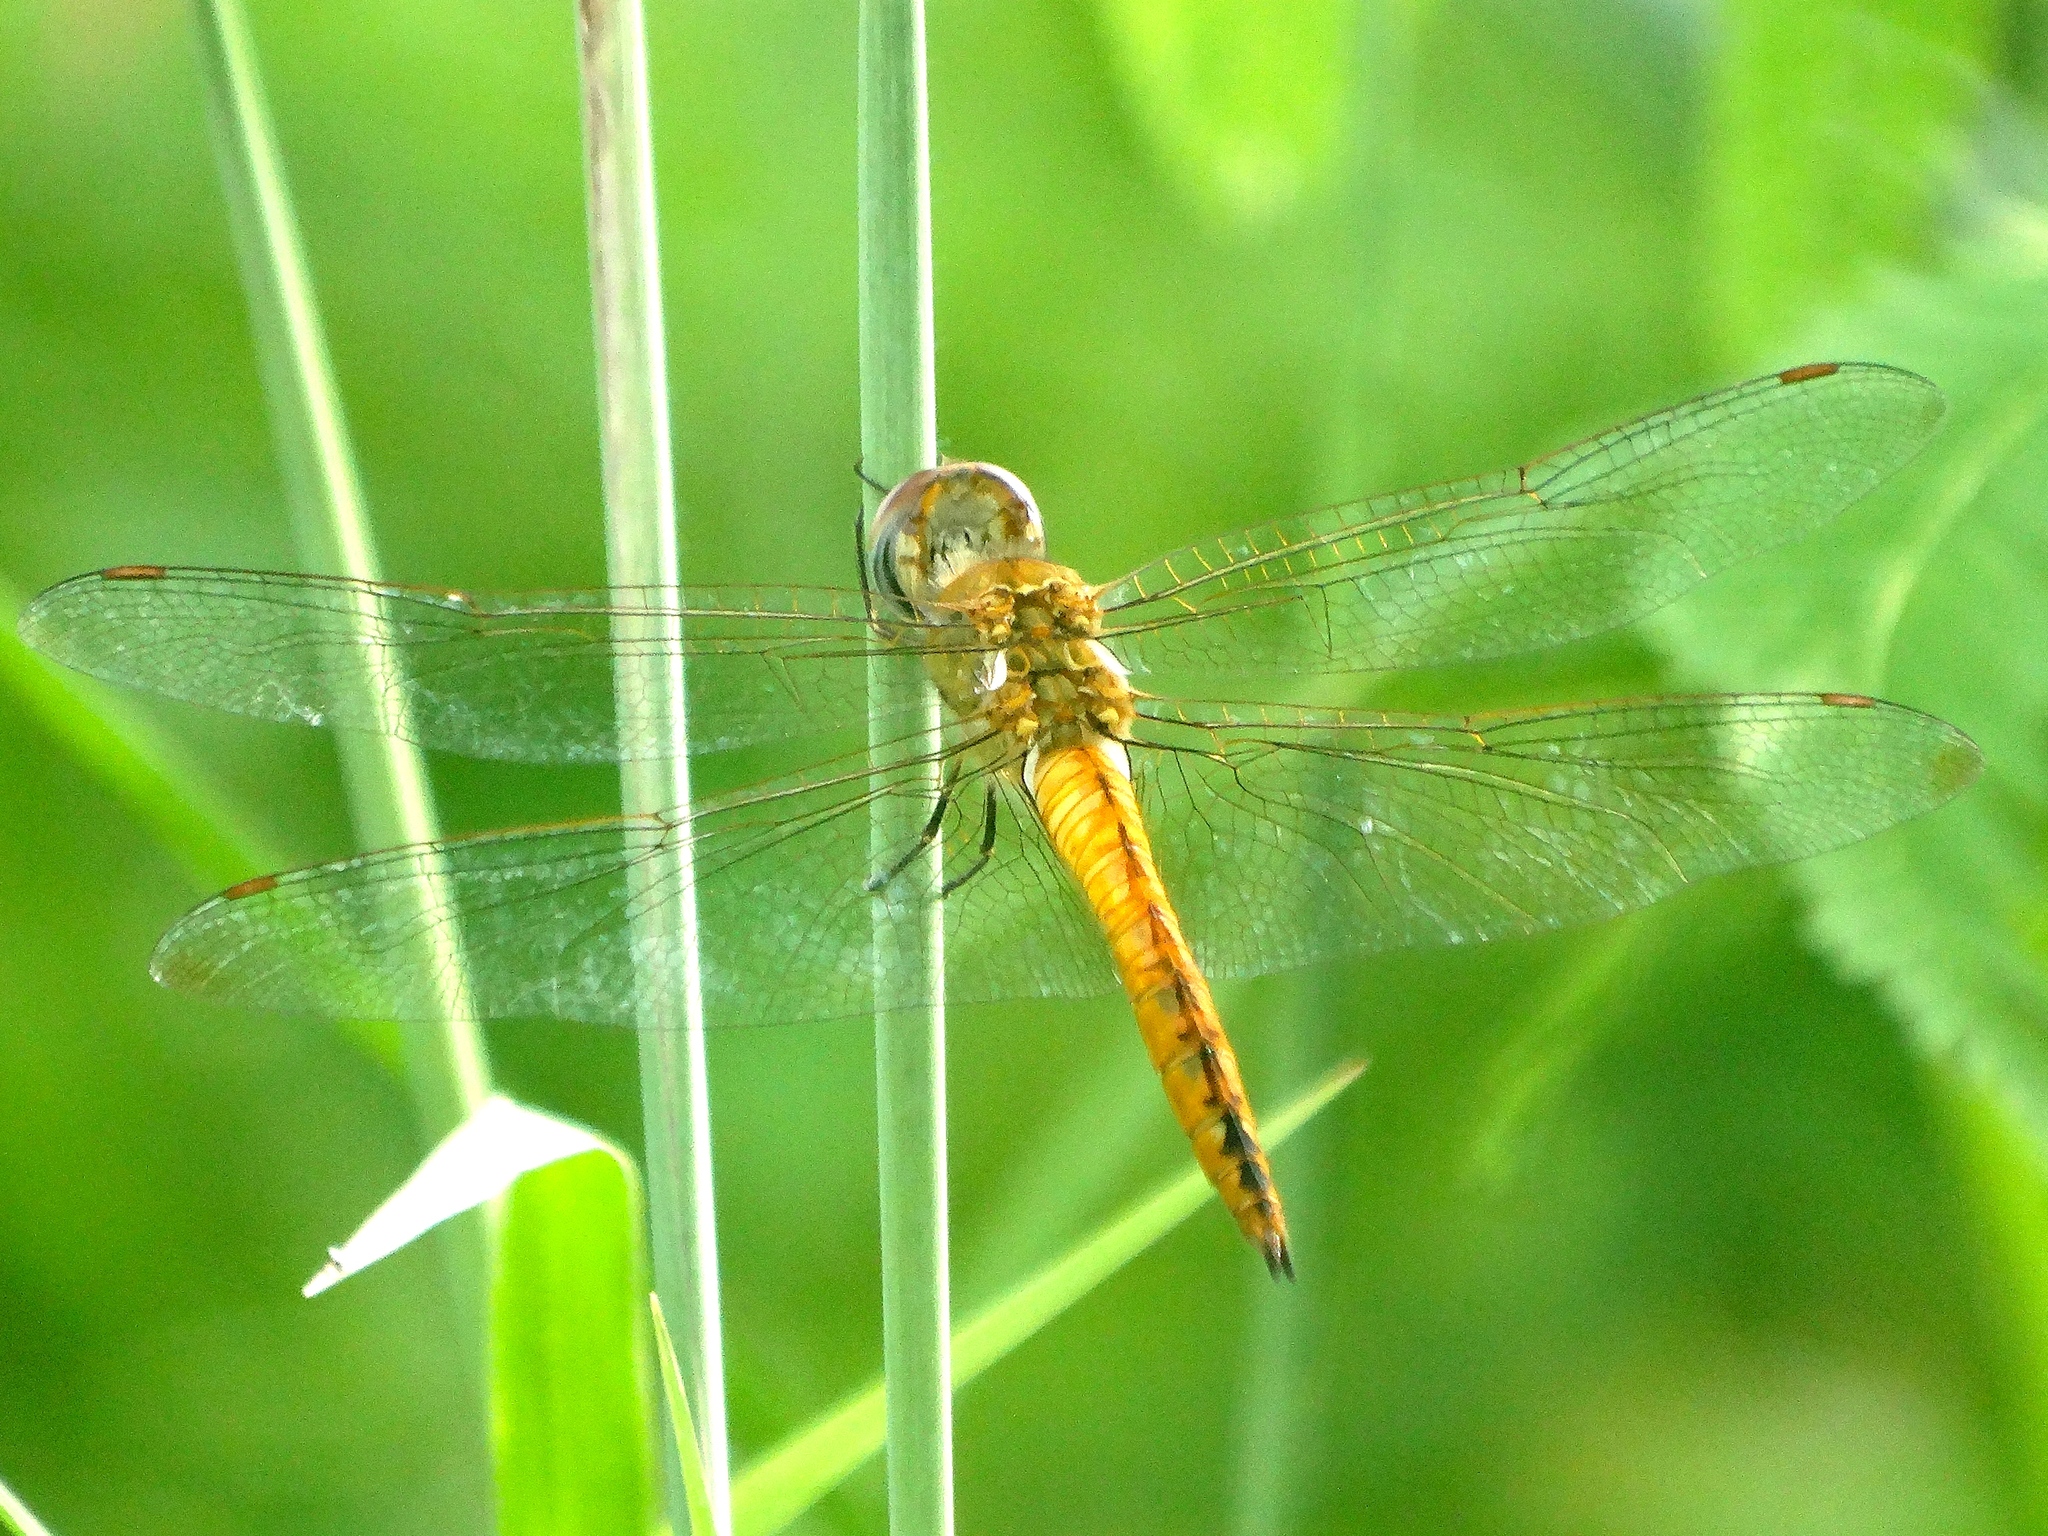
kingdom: Animalia
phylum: Arthropoda
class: Insecta
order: Odonata
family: Libellulidae
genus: Pantala
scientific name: Pantala flavescens
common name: Wandering glider
